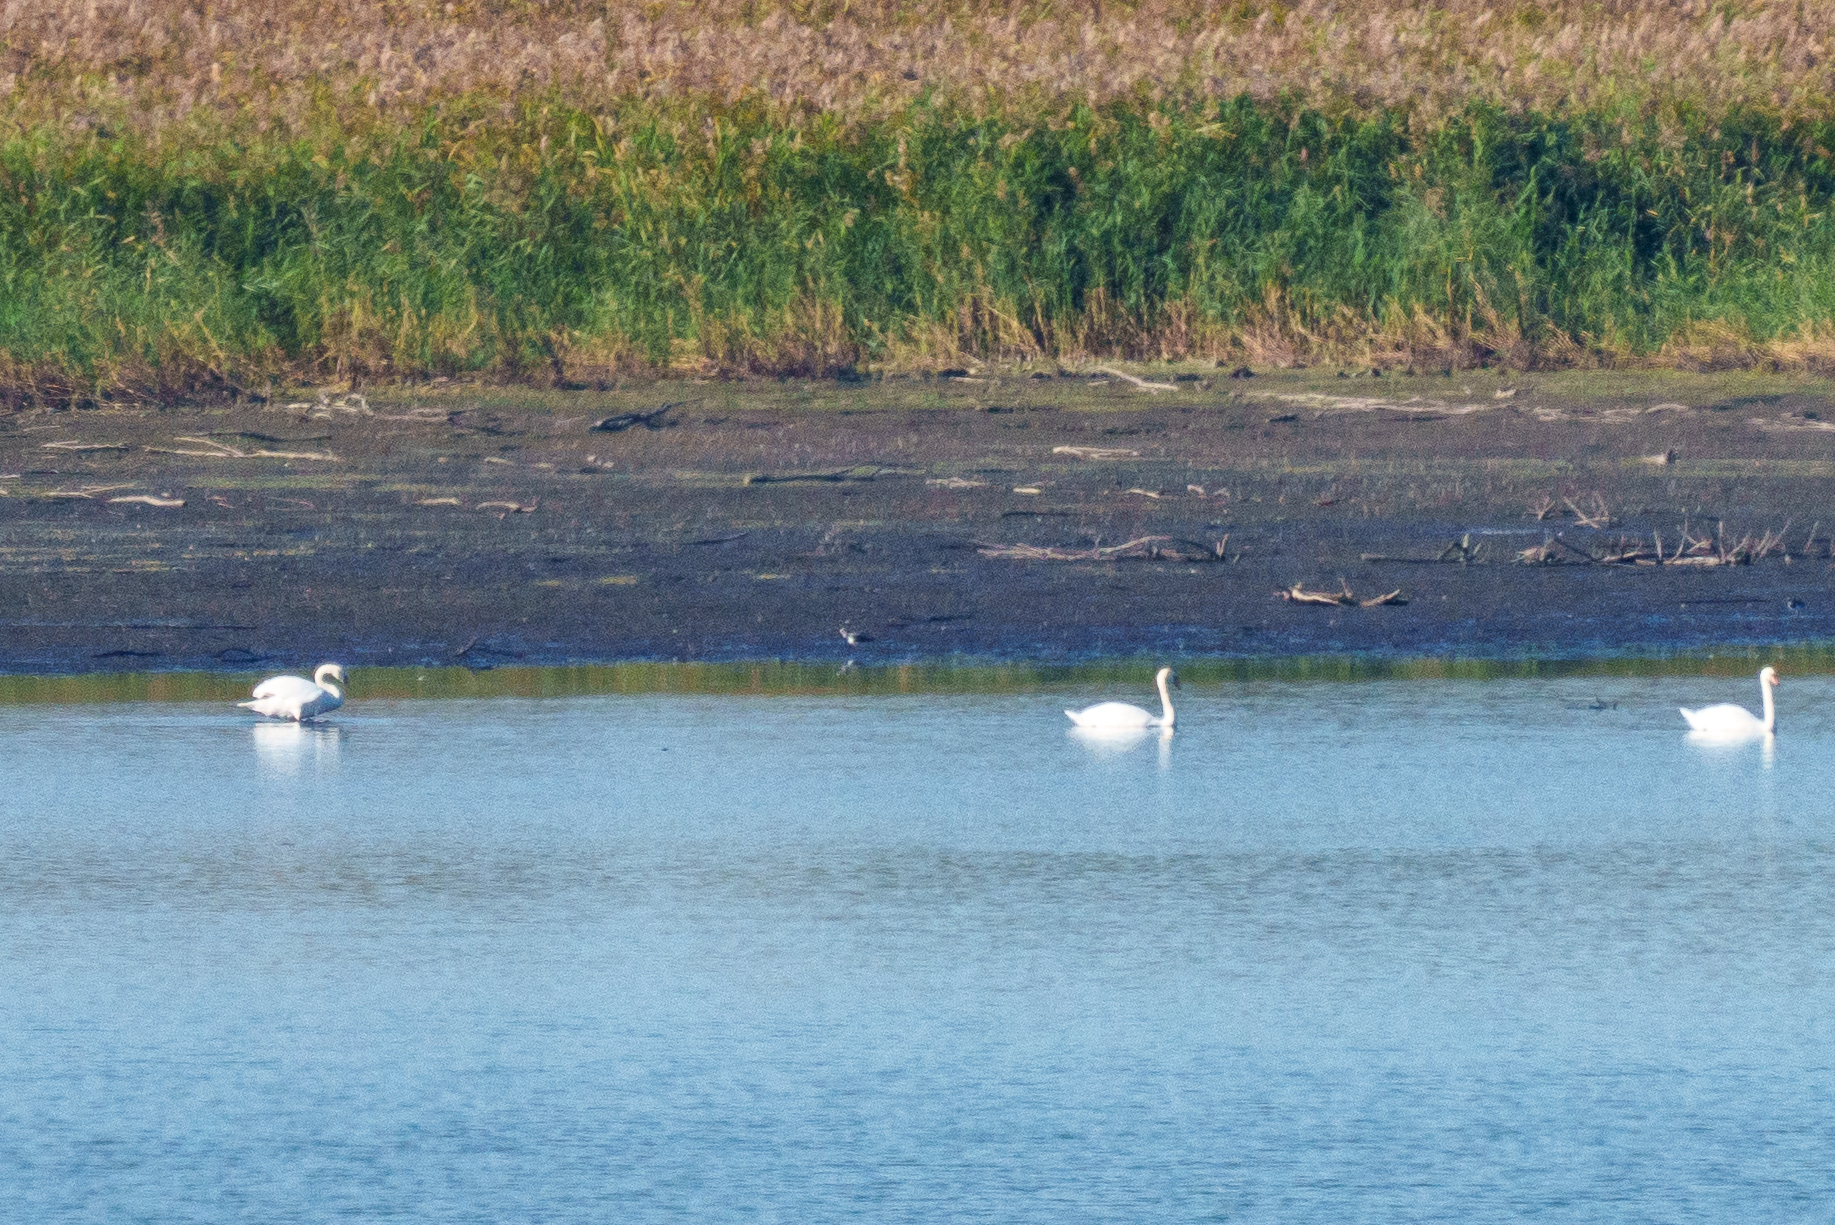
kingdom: Animalia
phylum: Chordata
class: Aves
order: Anseriformes
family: Anatidae
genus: Cygnus
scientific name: Cygnus olor
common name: Mute swan
